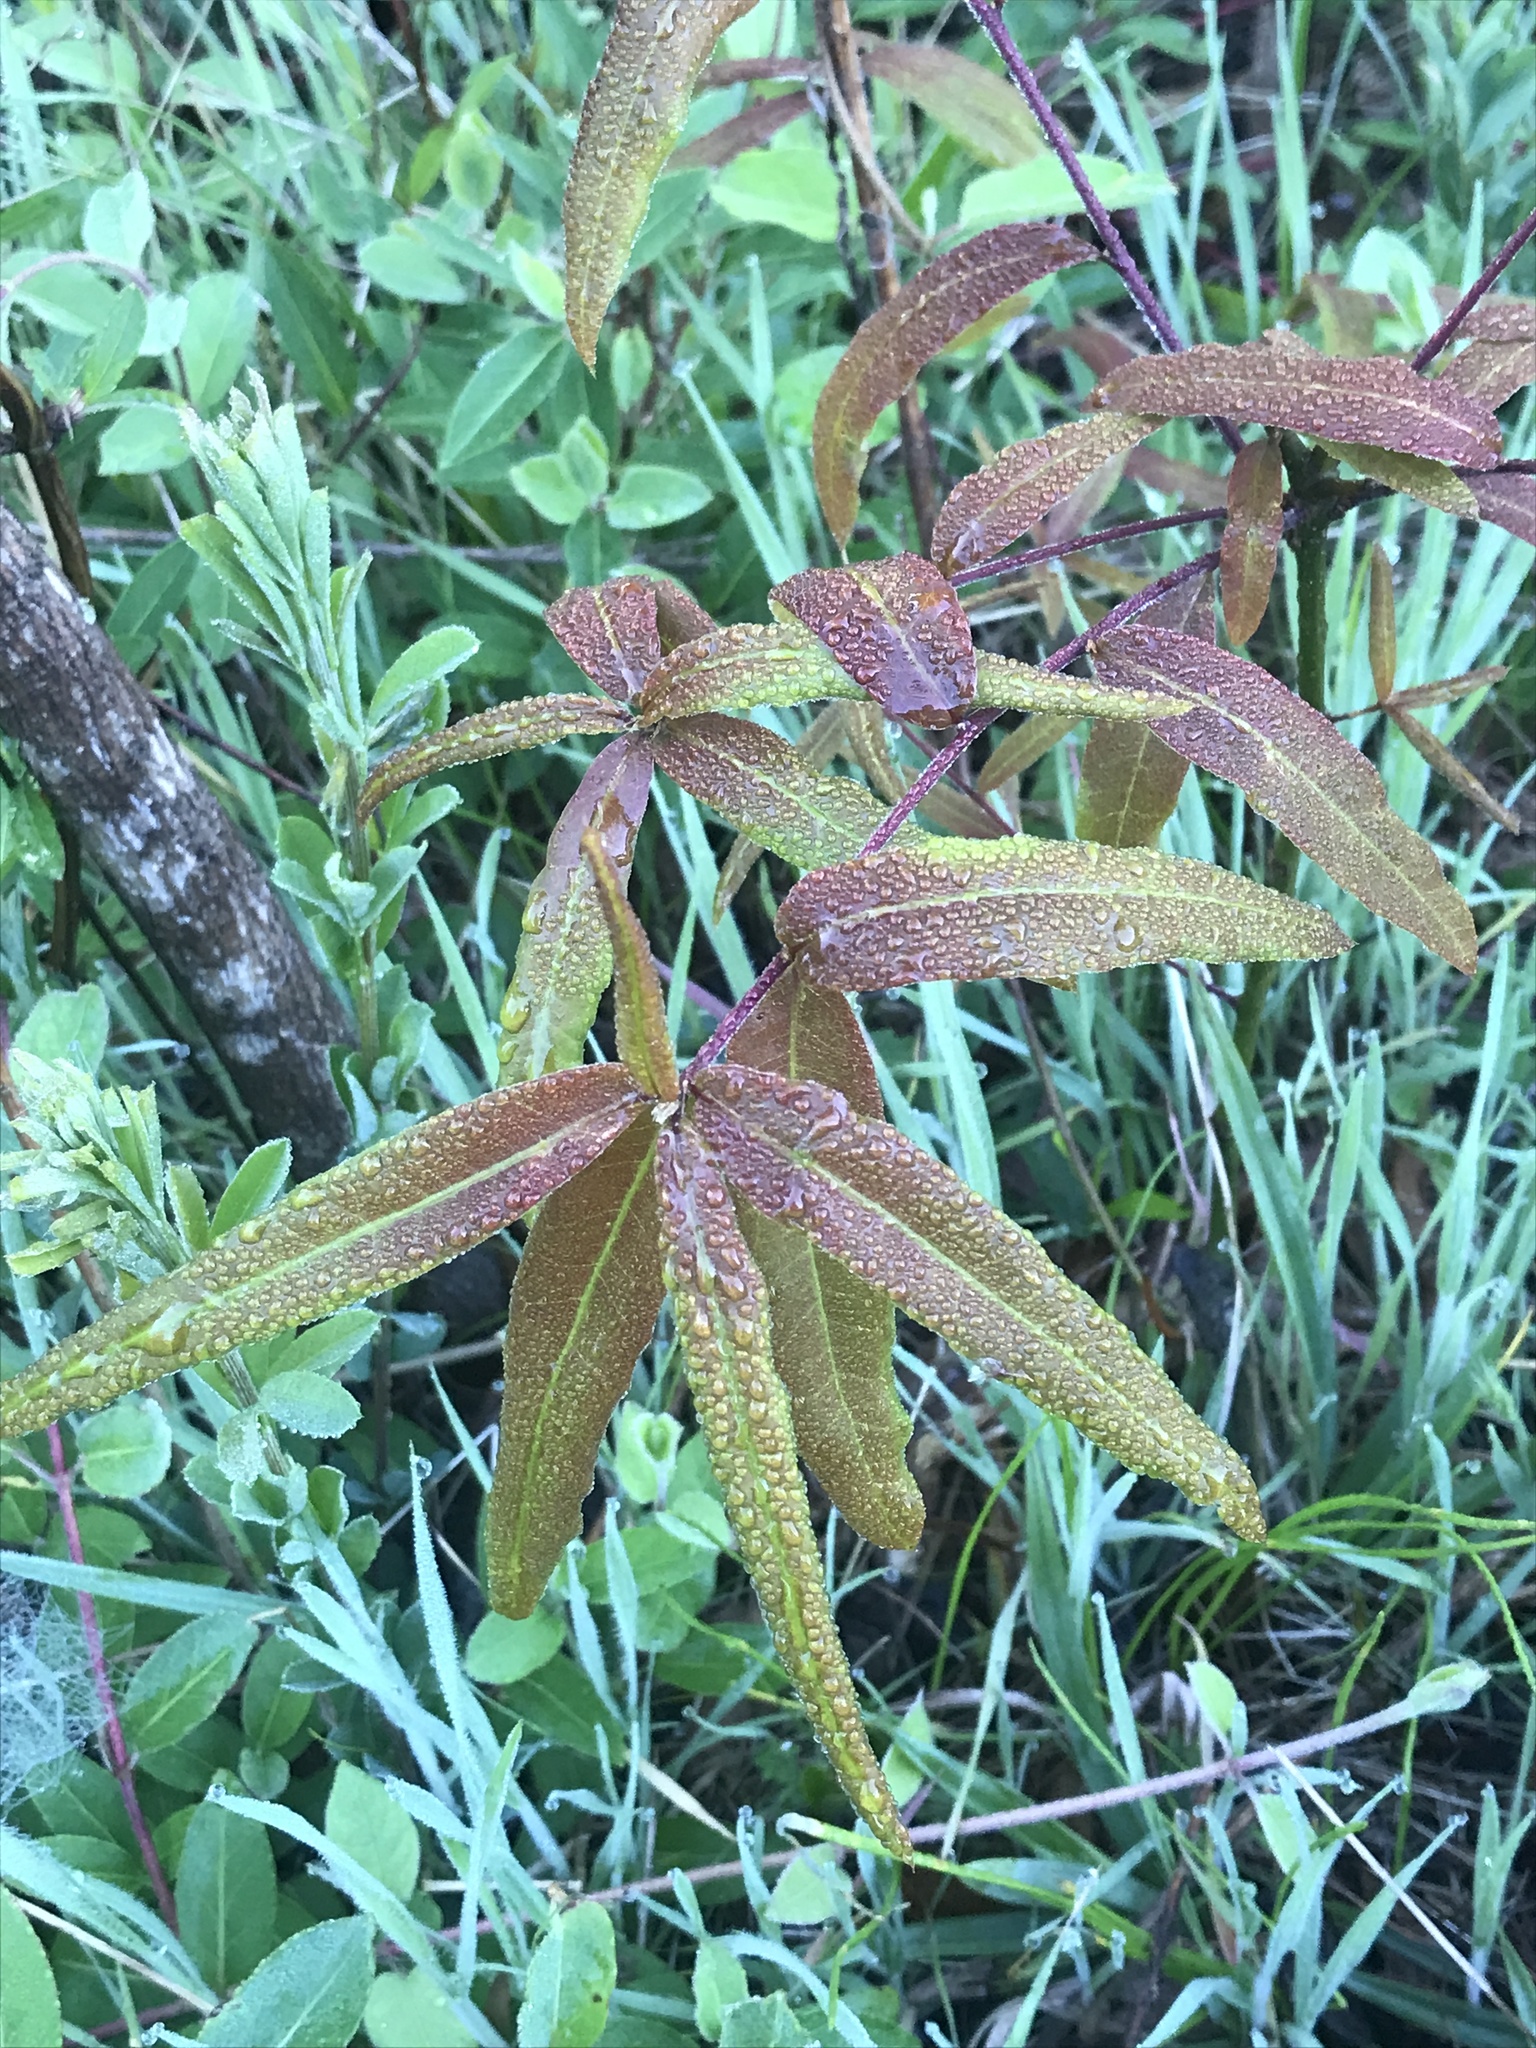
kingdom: Plantae
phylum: Tracheophyta
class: Magnoliopsida
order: Fagales
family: Fagaceae
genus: Quercus
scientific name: Quercus phellos
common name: Willow oak
